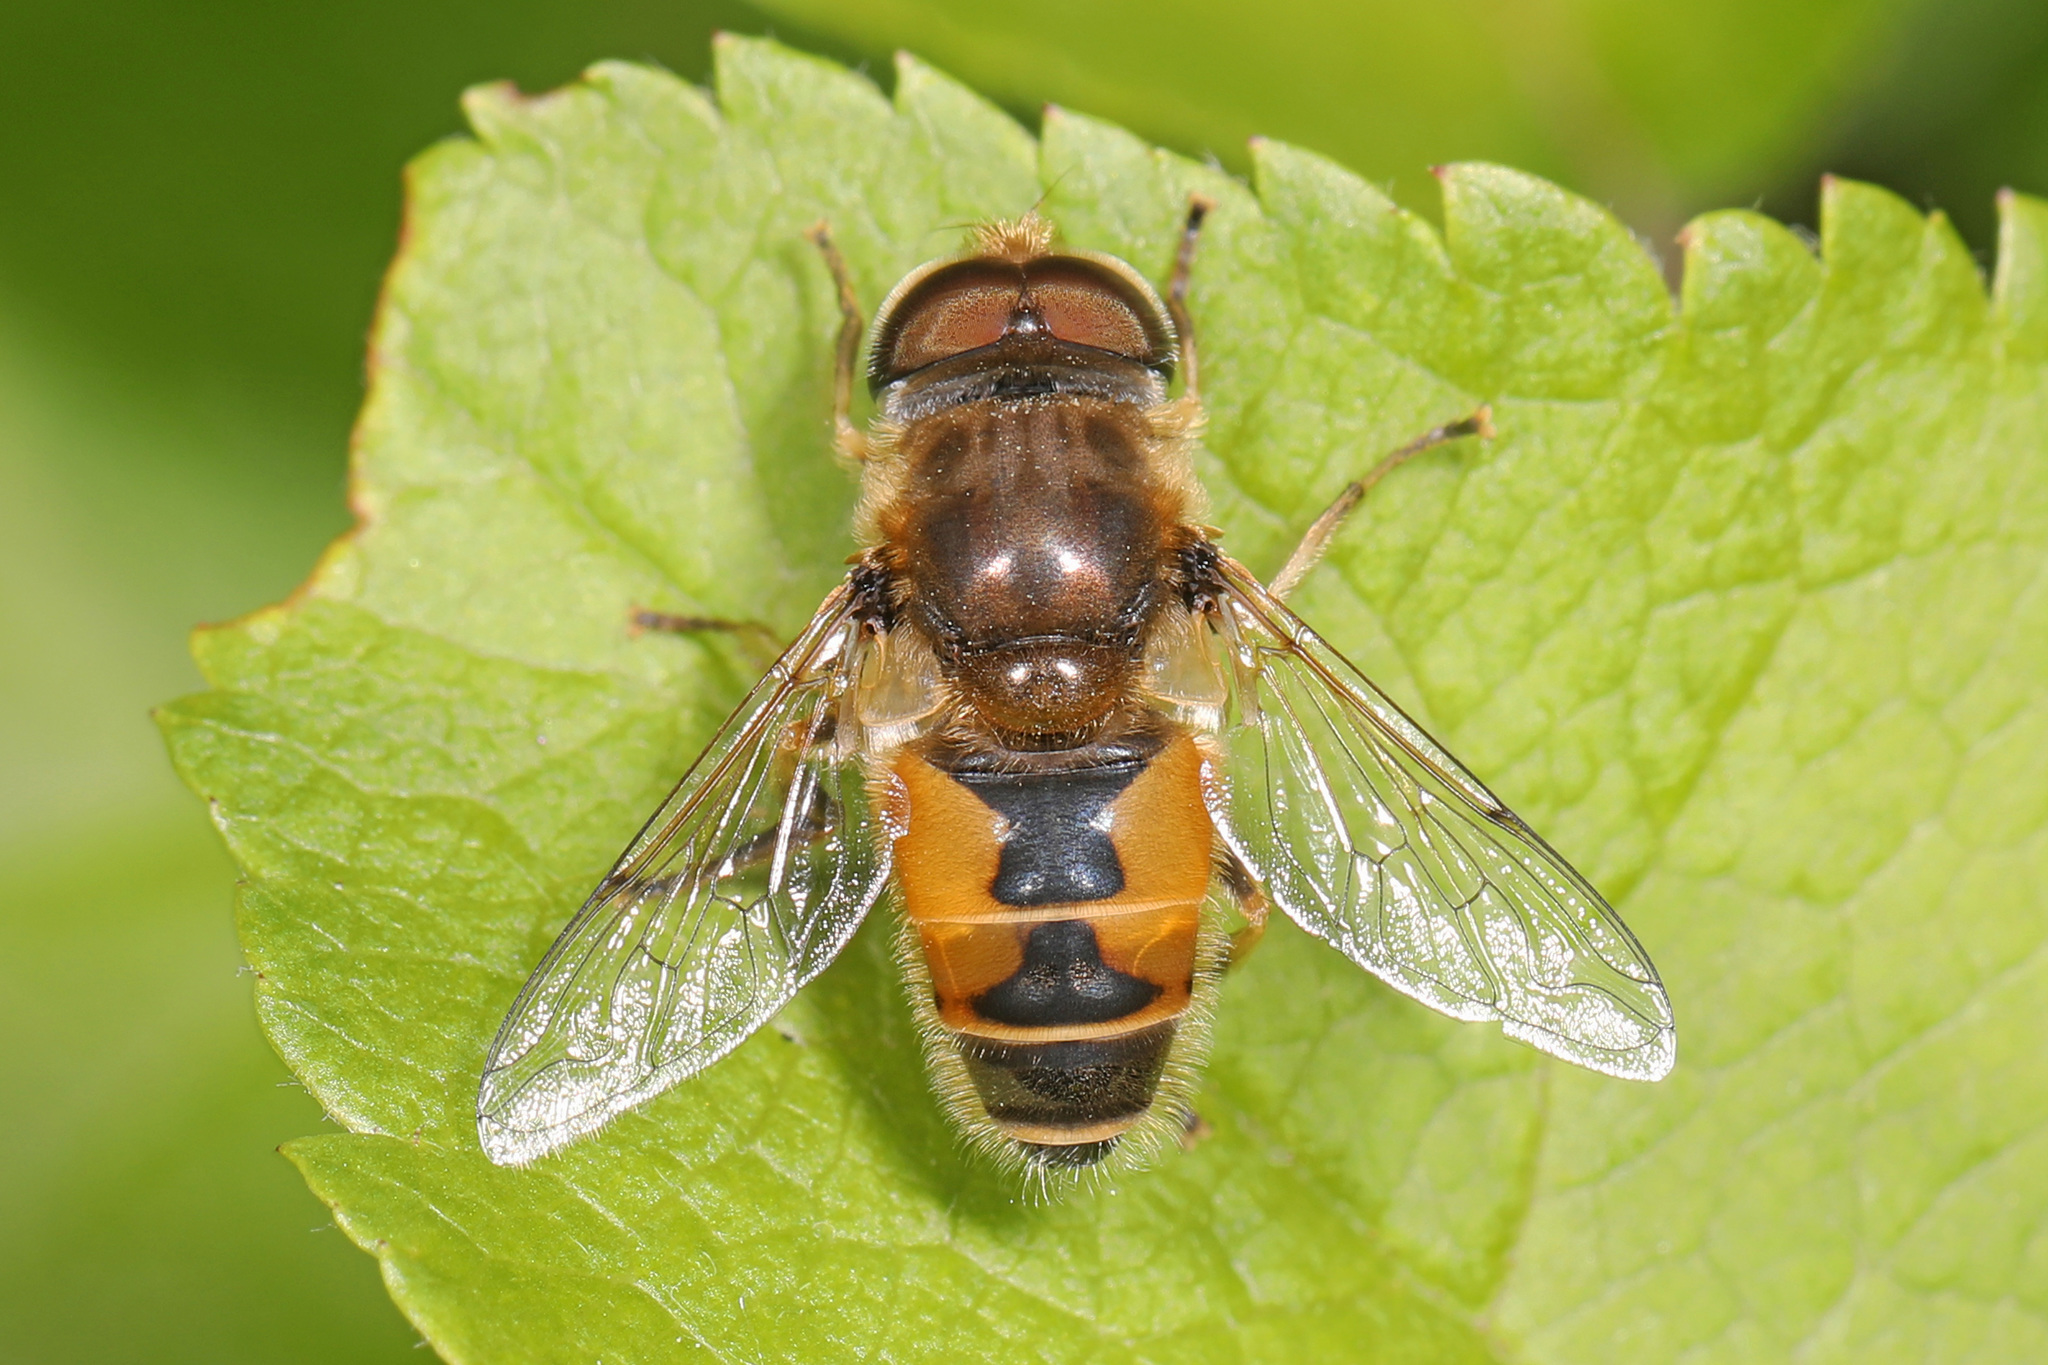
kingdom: Animalia
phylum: Arthropoda
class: Insecta
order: Diptera
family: Syrphidae
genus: Eristalis
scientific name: Eristalis arbustorum
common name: Hover fly
